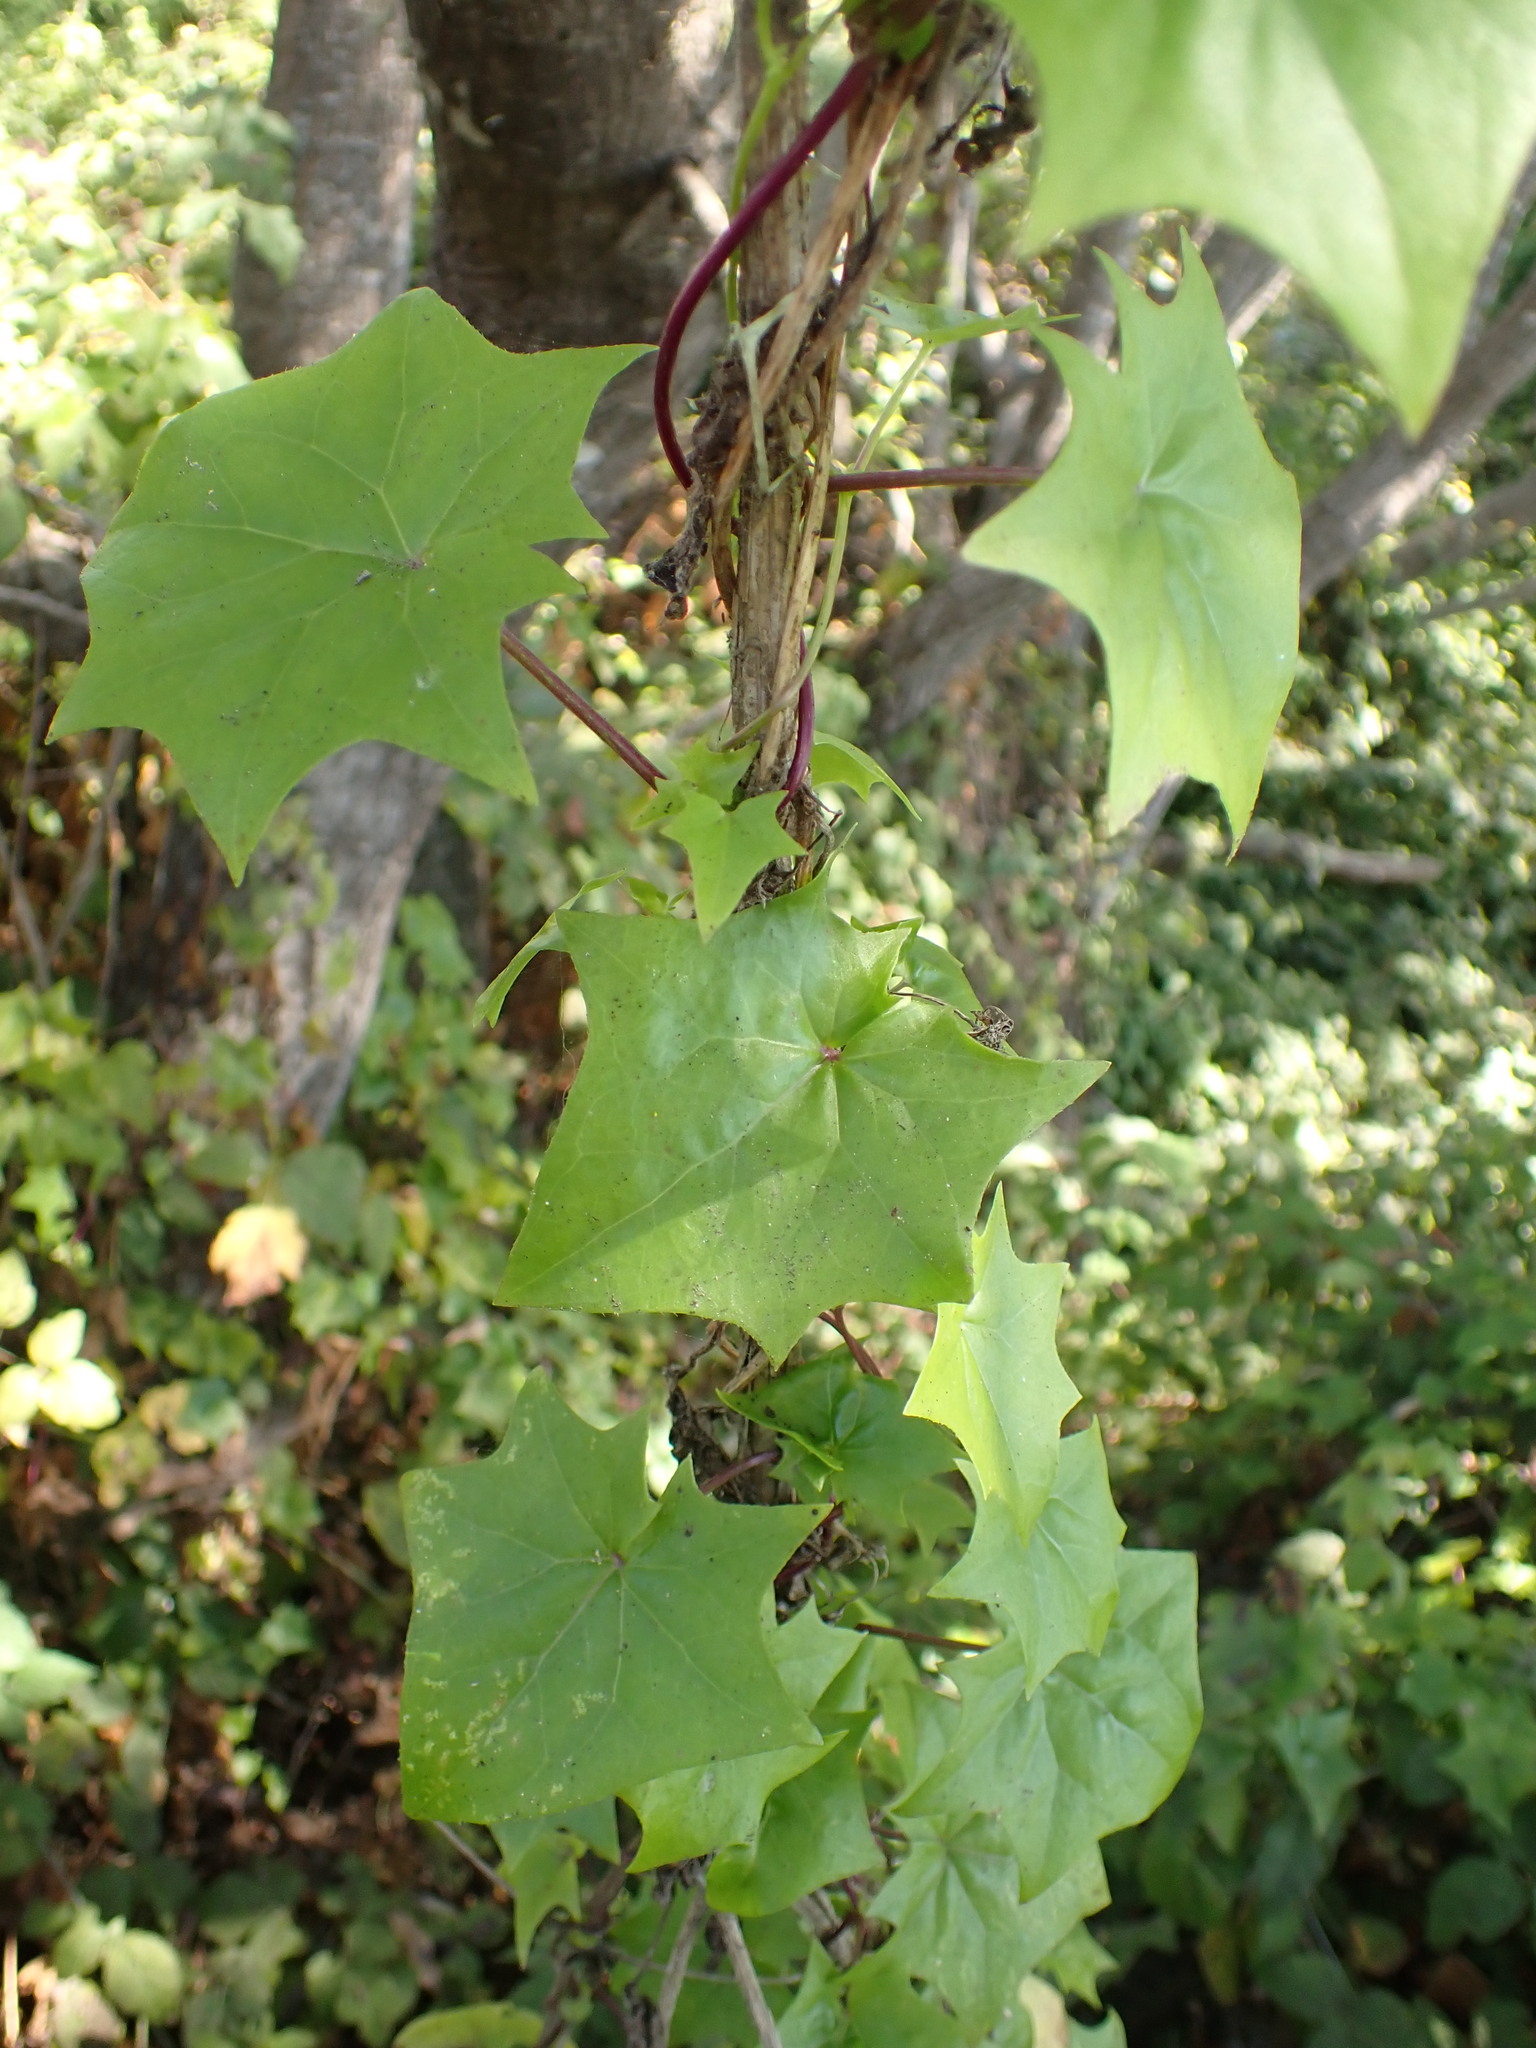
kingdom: Plantae
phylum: Tracheophyta
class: Magnoliopsida
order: Asterales
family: Asteraceae
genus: Delairea
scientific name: Delairea odorata
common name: Cape-ivy
